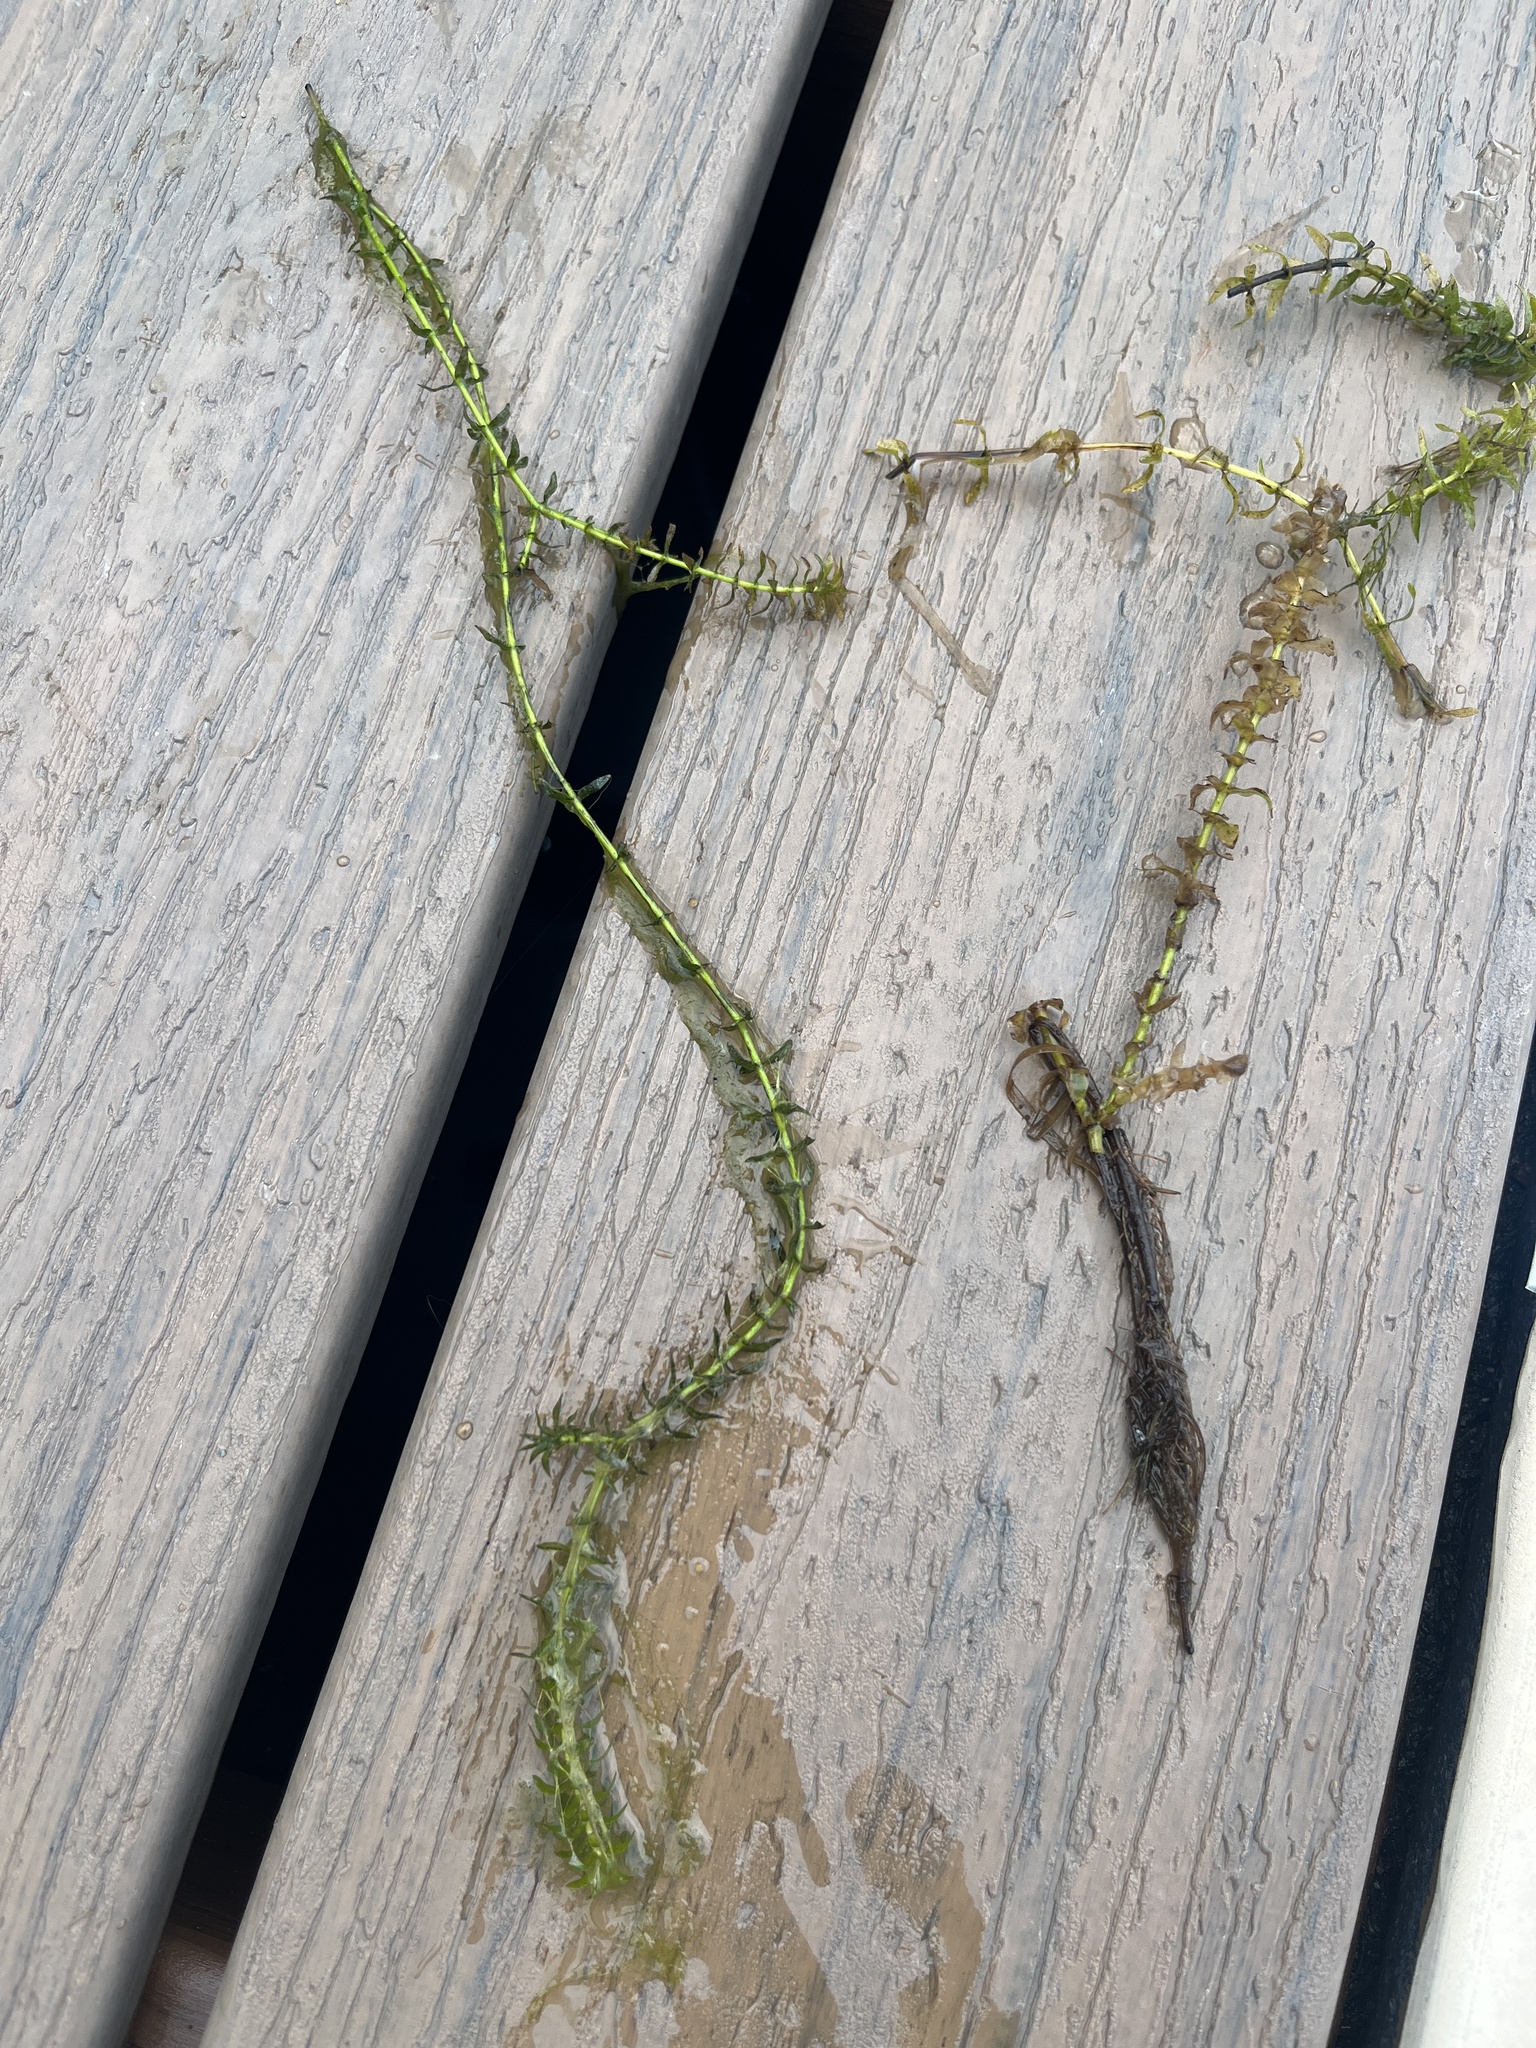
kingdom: Plantae
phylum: Tracheophyta
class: Liliopsida
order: Alismatales
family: Hydrocharitaceae
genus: Elodea
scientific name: Elodea canadensis
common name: Canadian waterweed
